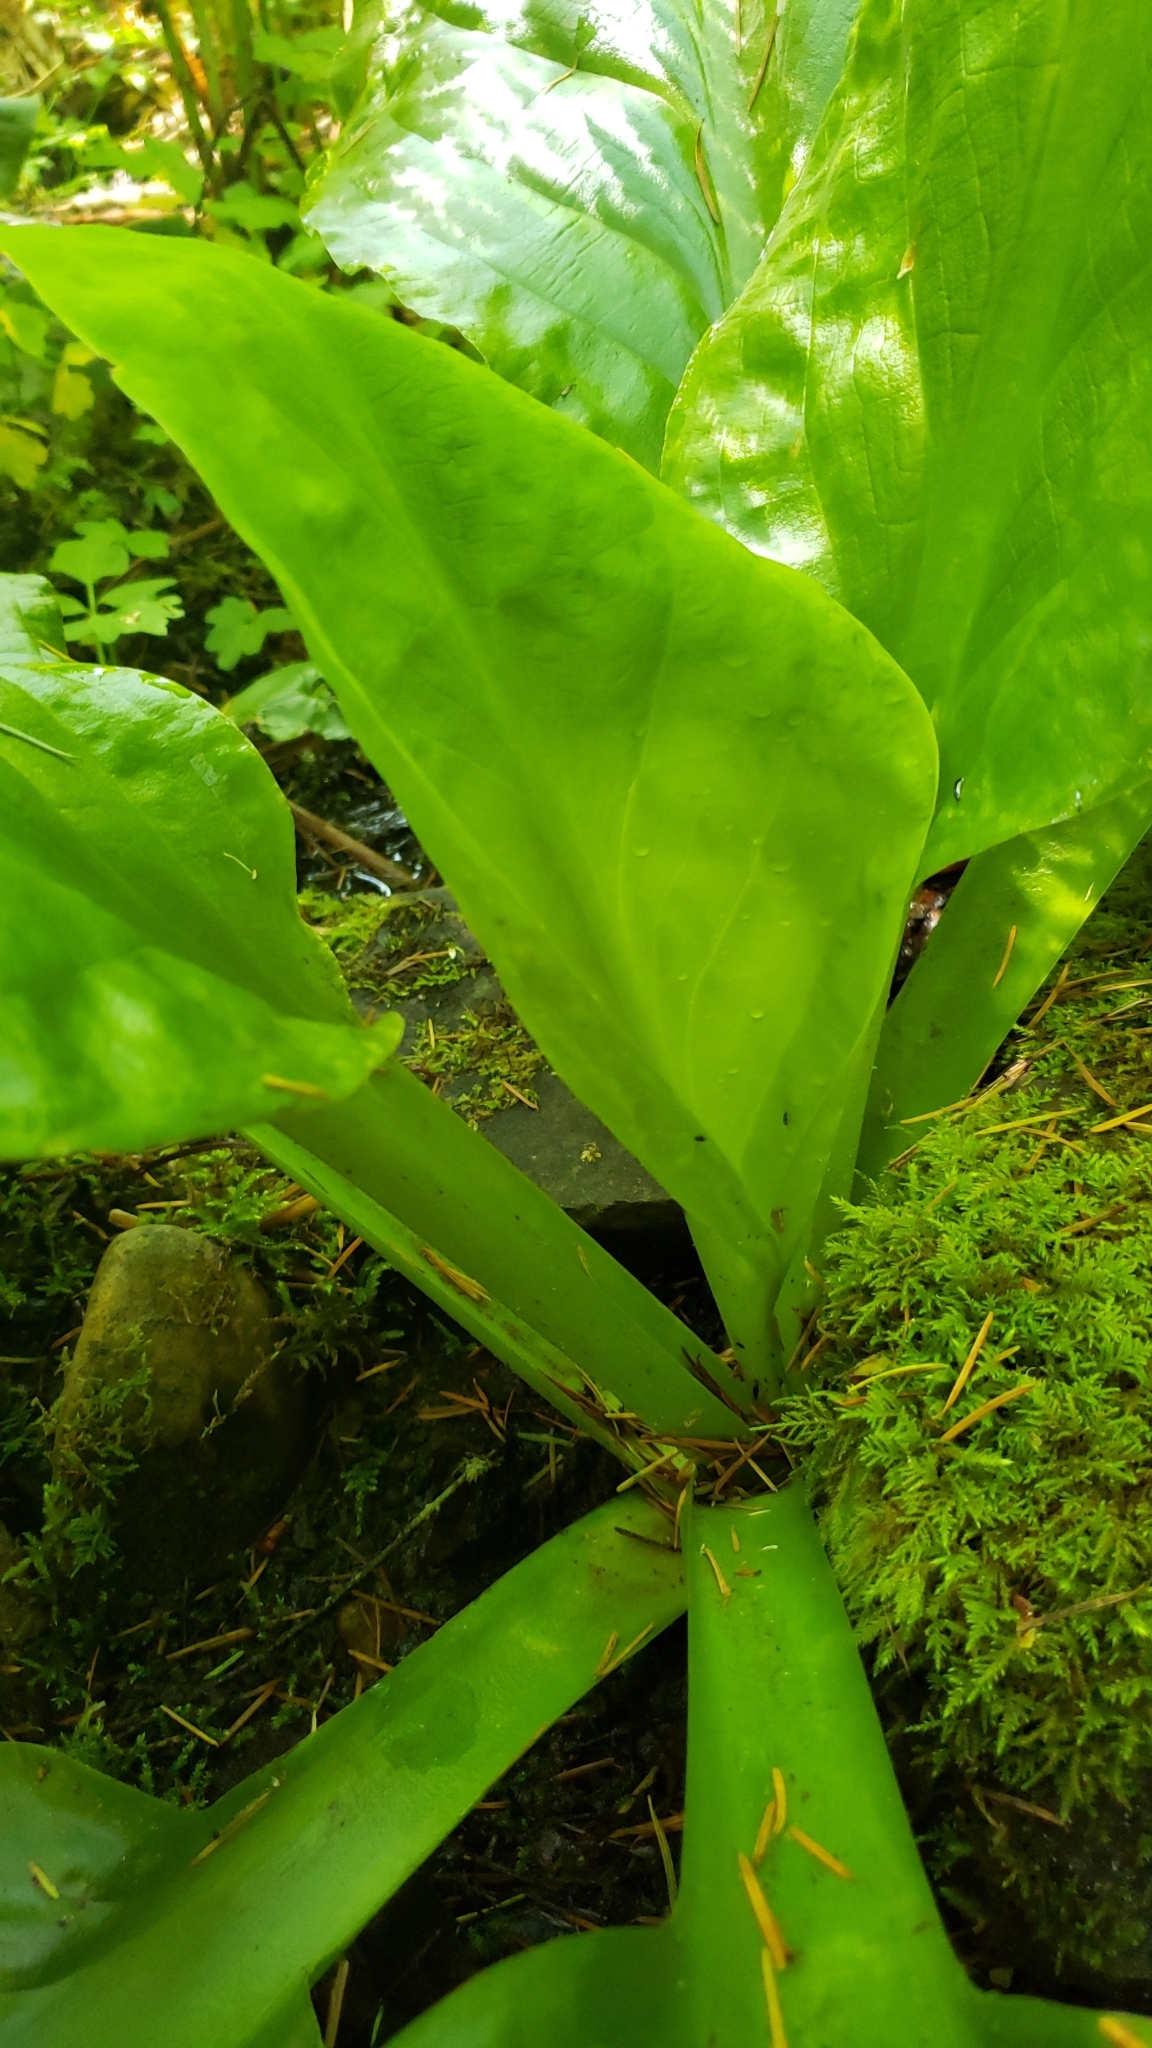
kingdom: Plantae
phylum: Tracheophyta
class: Liliopsida
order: Alismatales
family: Araceae
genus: Lysichiton
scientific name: Lysichiton americanus
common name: American skunk cabbage
